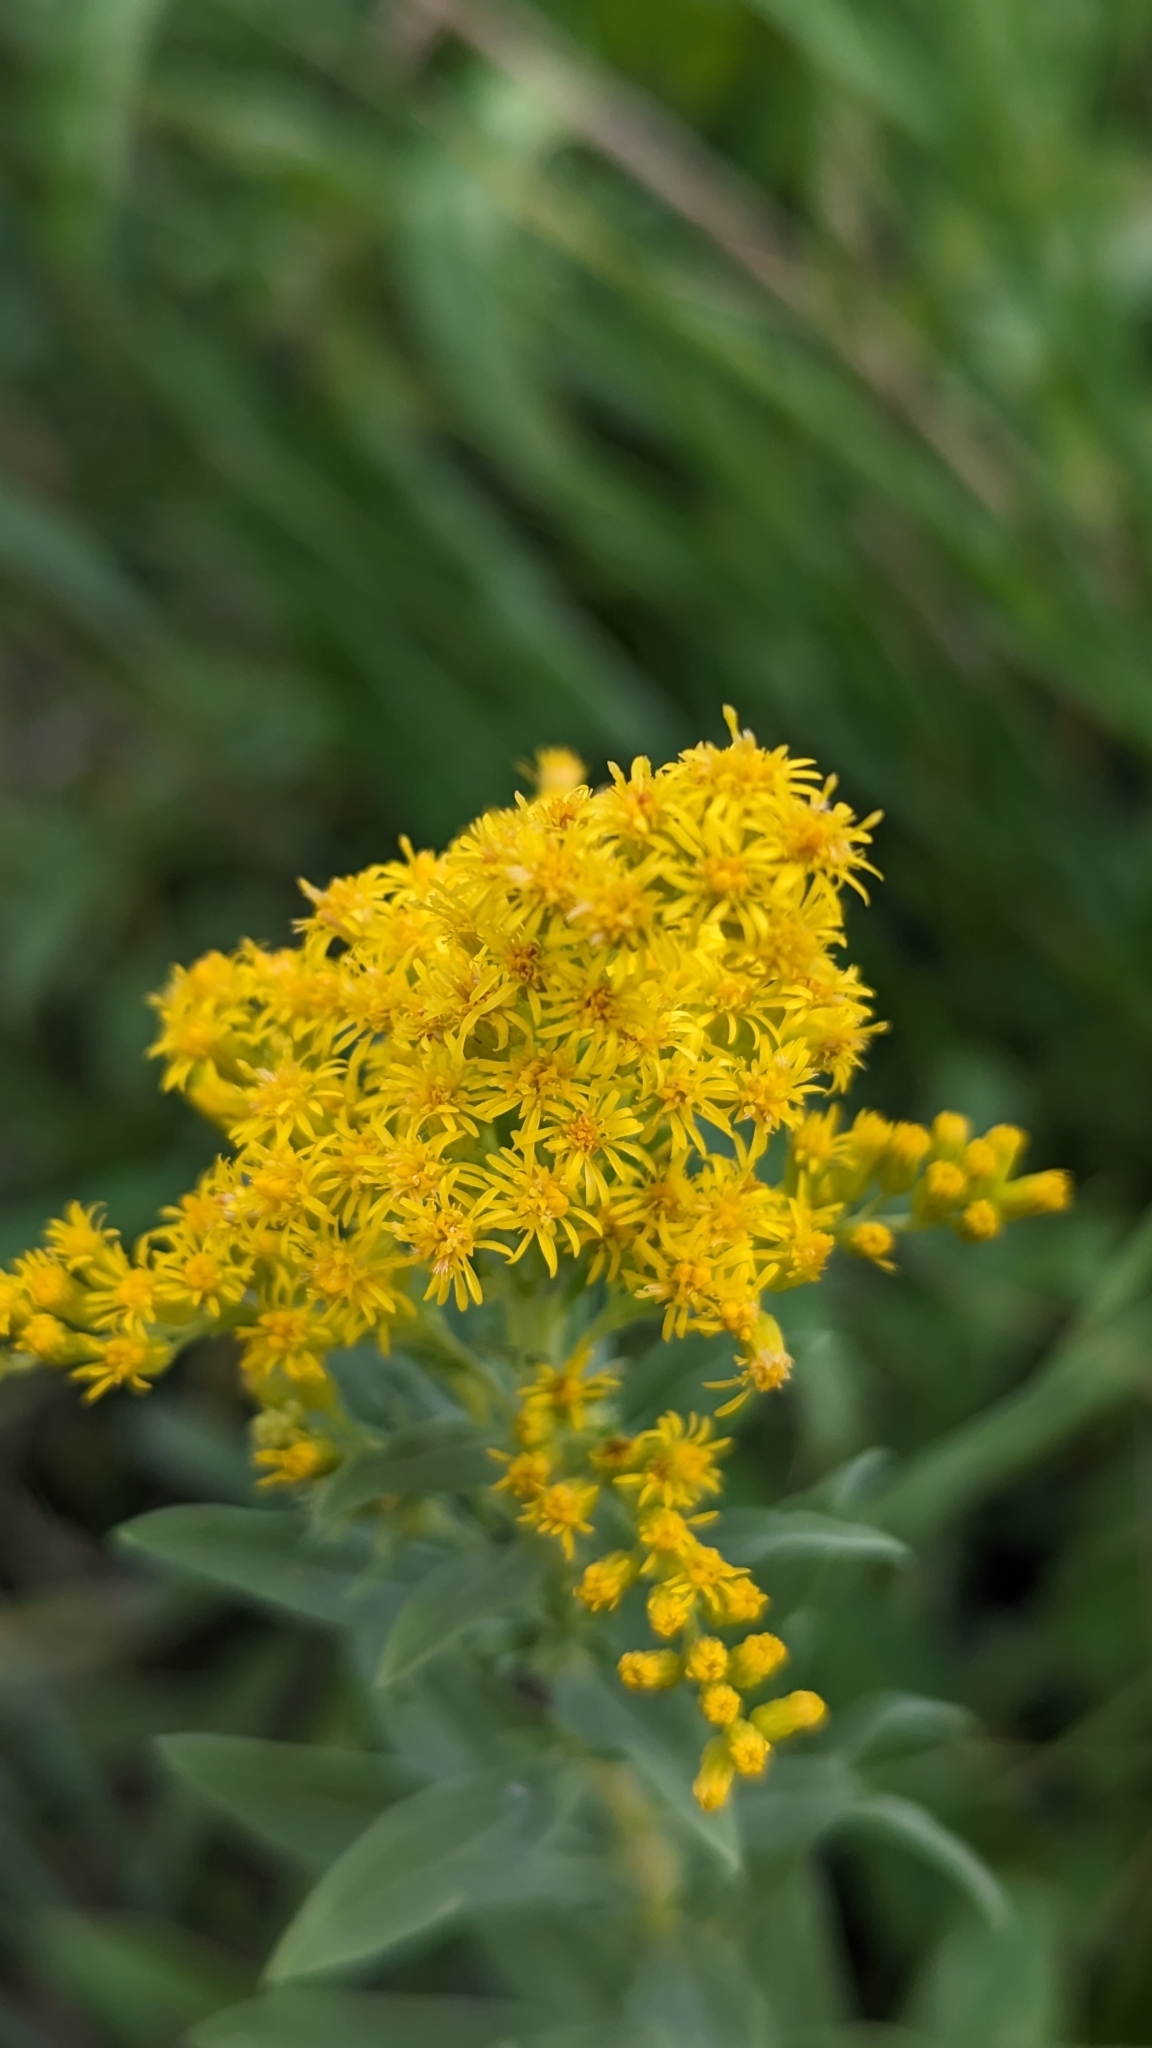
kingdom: Plantae
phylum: Tracheophyta
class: Magnoliopsida
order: Asterales
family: Asteraceae
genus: Solidago
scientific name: Solidago canadensis
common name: Canada goldenrod
